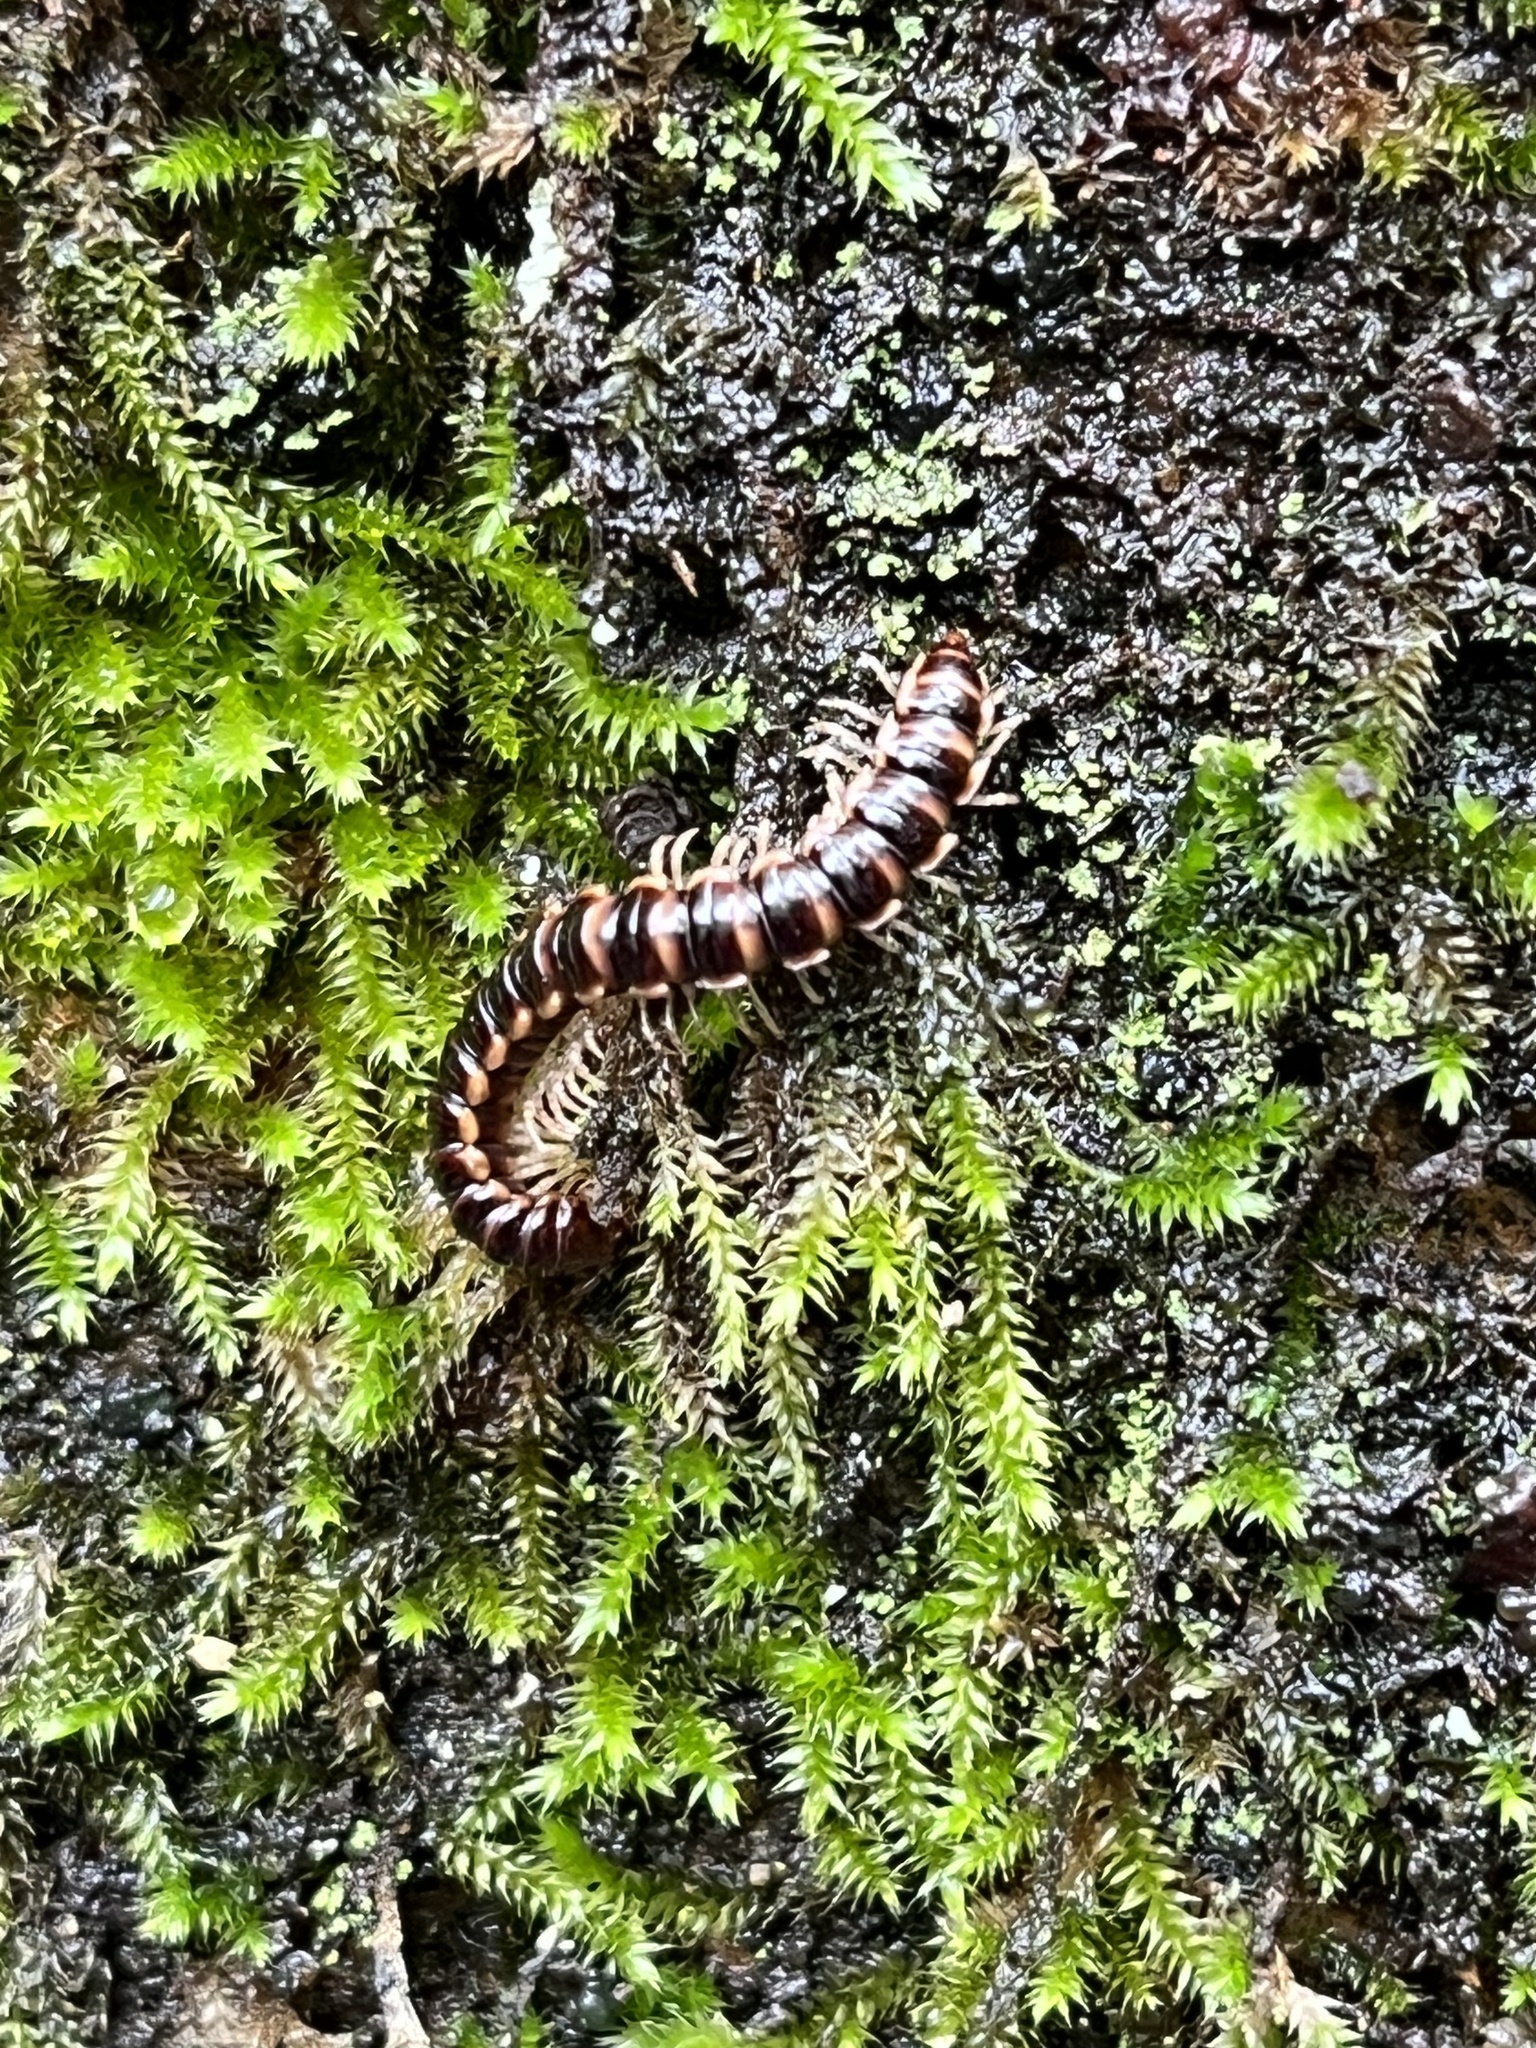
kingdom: Animalia
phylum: Arthropoda
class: Diplopoda
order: Polydesmida
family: Paradoxosomatidae
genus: Oxidus
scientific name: Oxidus gracilis
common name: Greenhouse millipede
